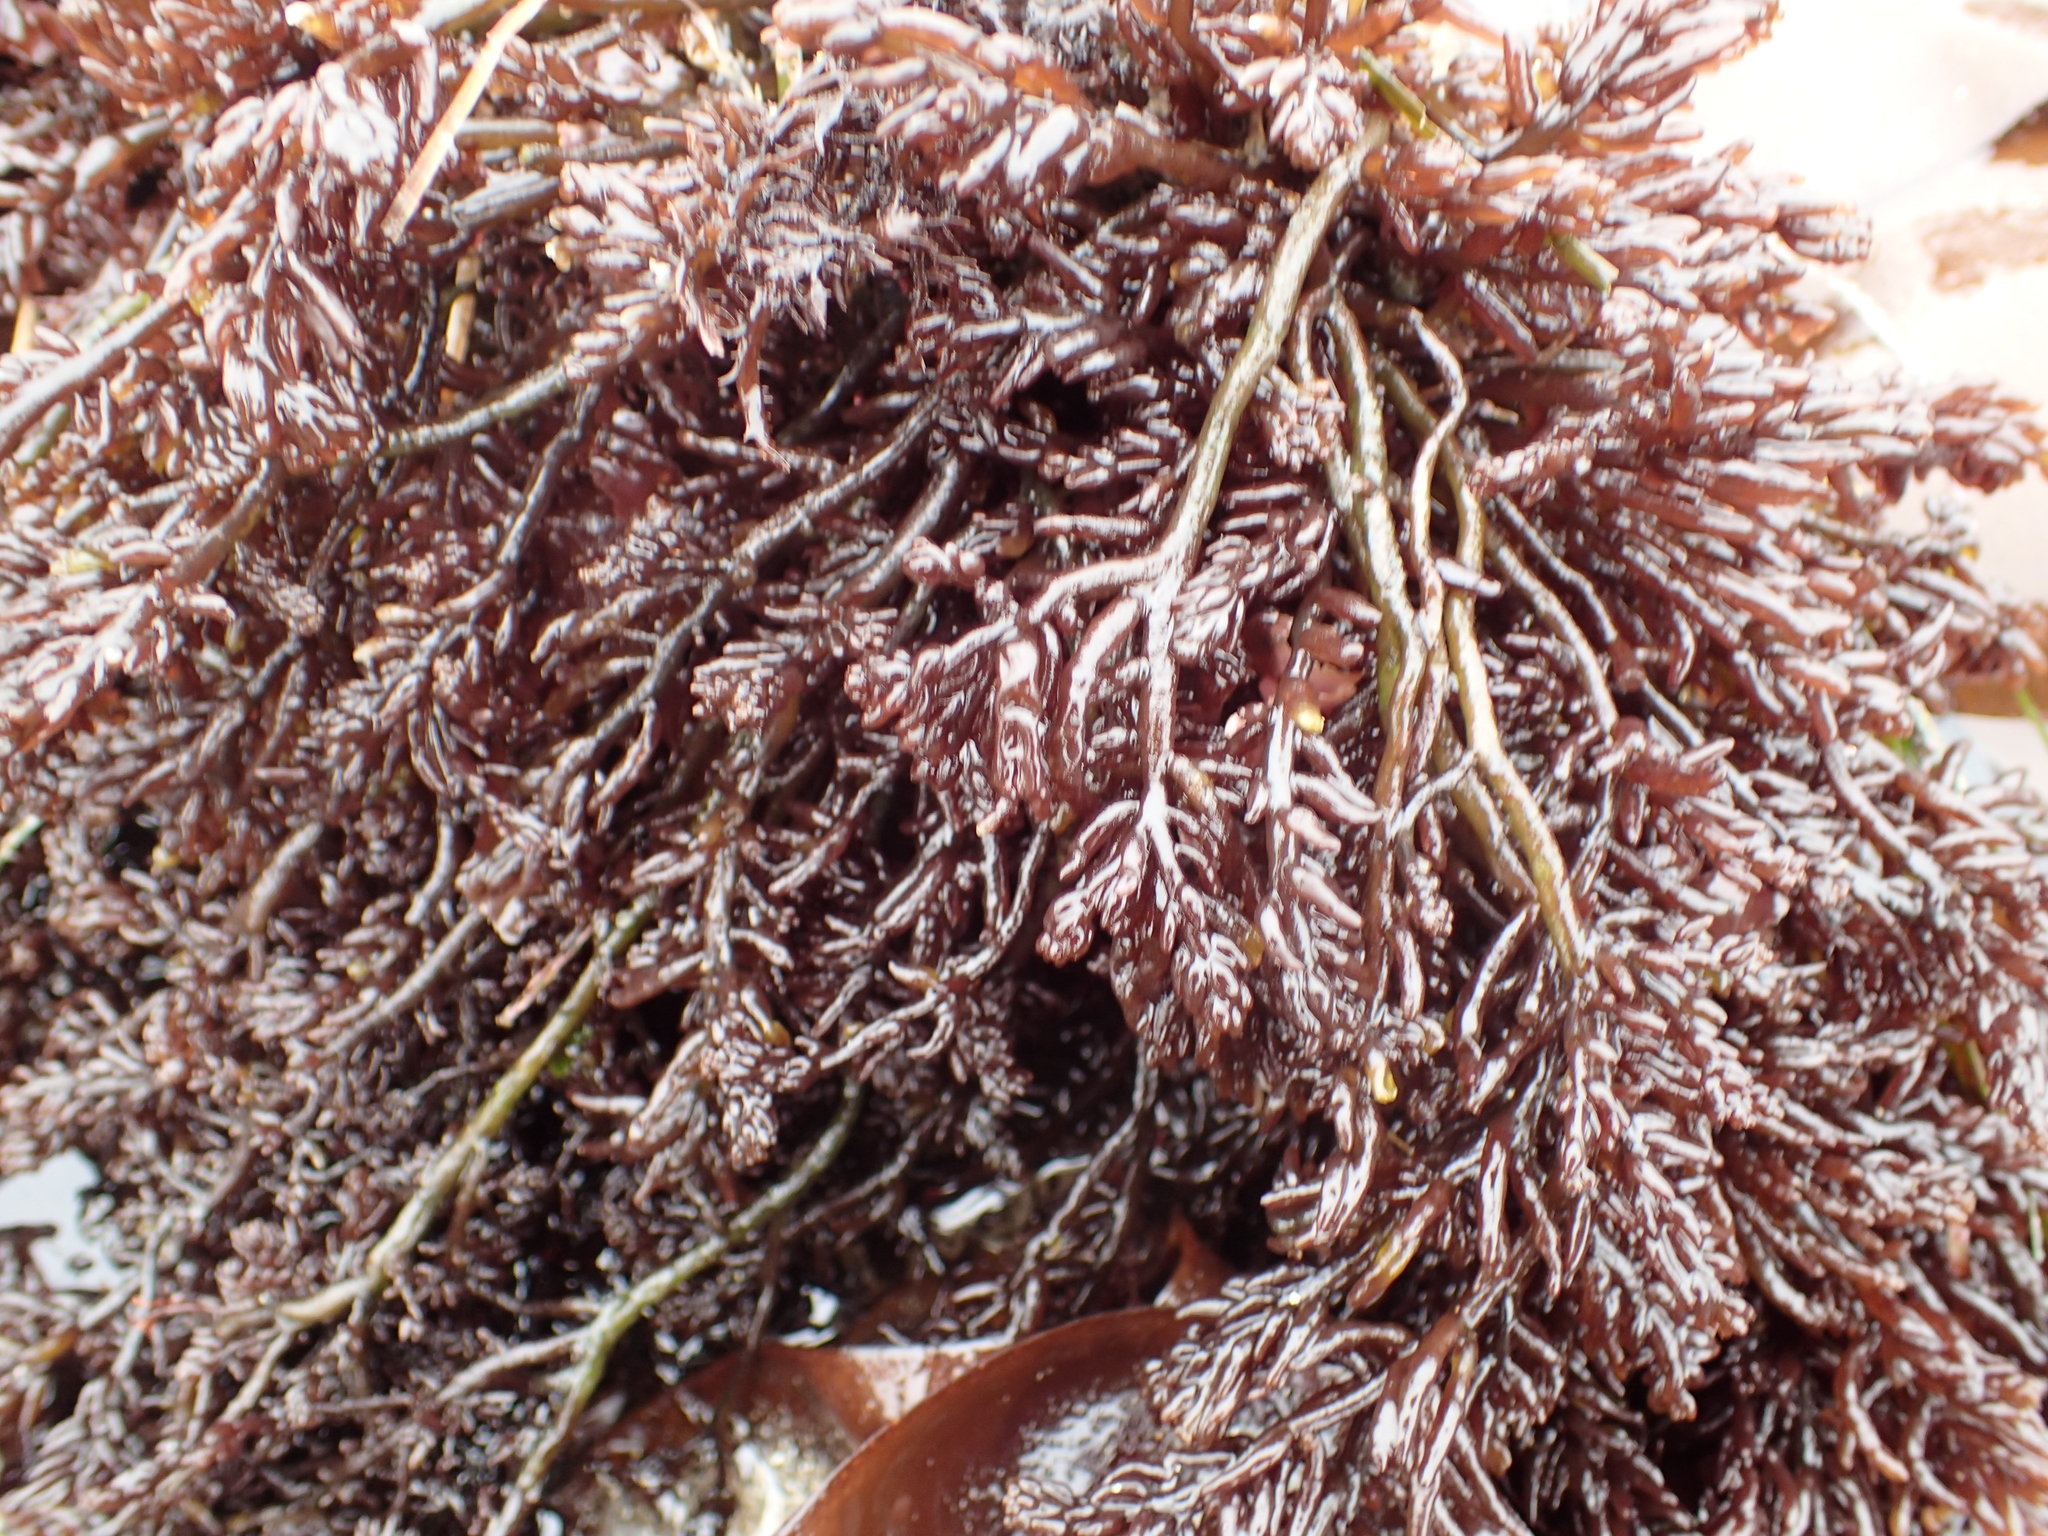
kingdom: Plantae
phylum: Rhodophyta
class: Florideophyceae
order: Rhodymeniales
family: Champiaceae
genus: Neogastroclonium
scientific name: Neogastroclonium subarticulatum
